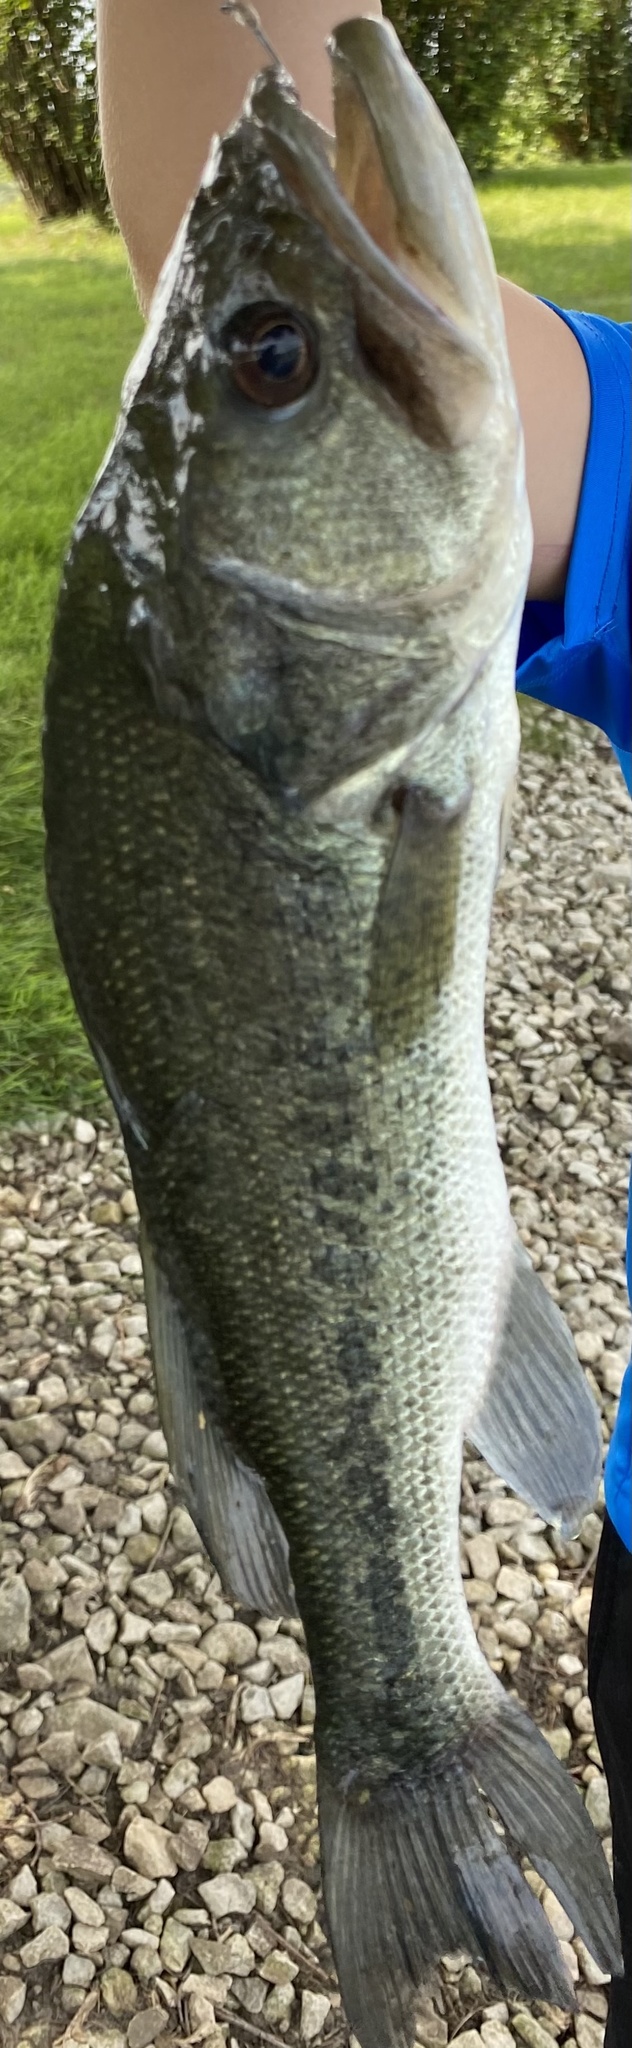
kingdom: Animalia
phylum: Chordata
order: Perciformes
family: Centrarchidae
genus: Micropterus
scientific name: Micropterus
